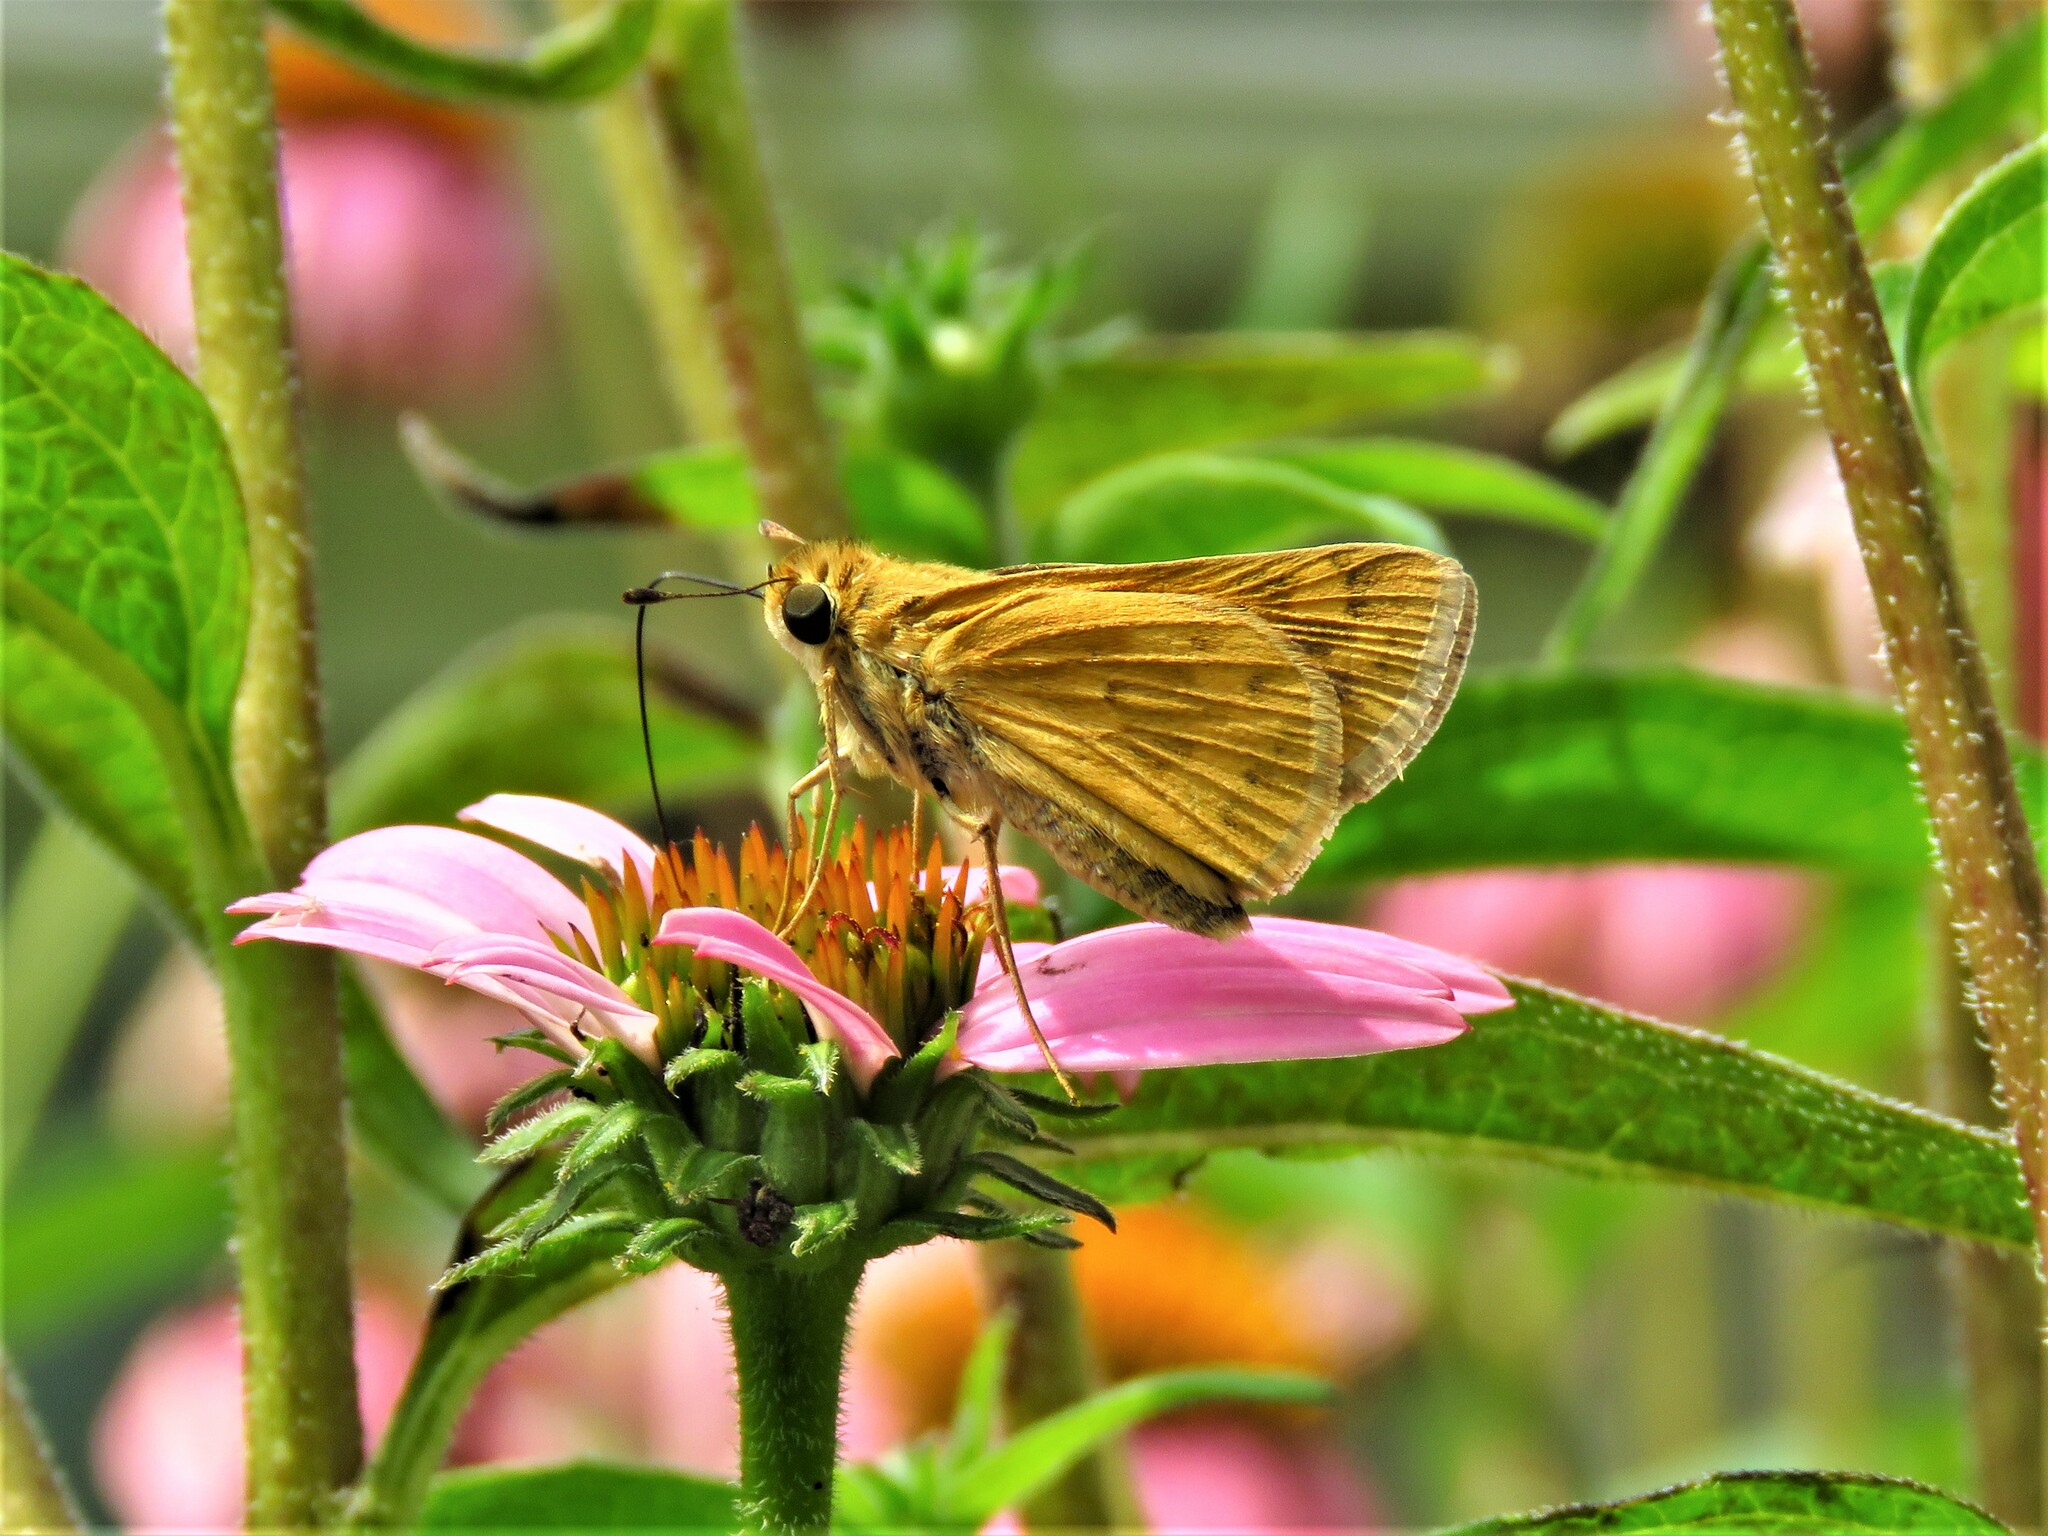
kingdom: Animalia
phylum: Arthropoda
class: Insecta
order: Lepidoptera
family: Hesperiidae
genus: Hylephila
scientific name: Hylephila phyleus
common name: Fiery skipper
